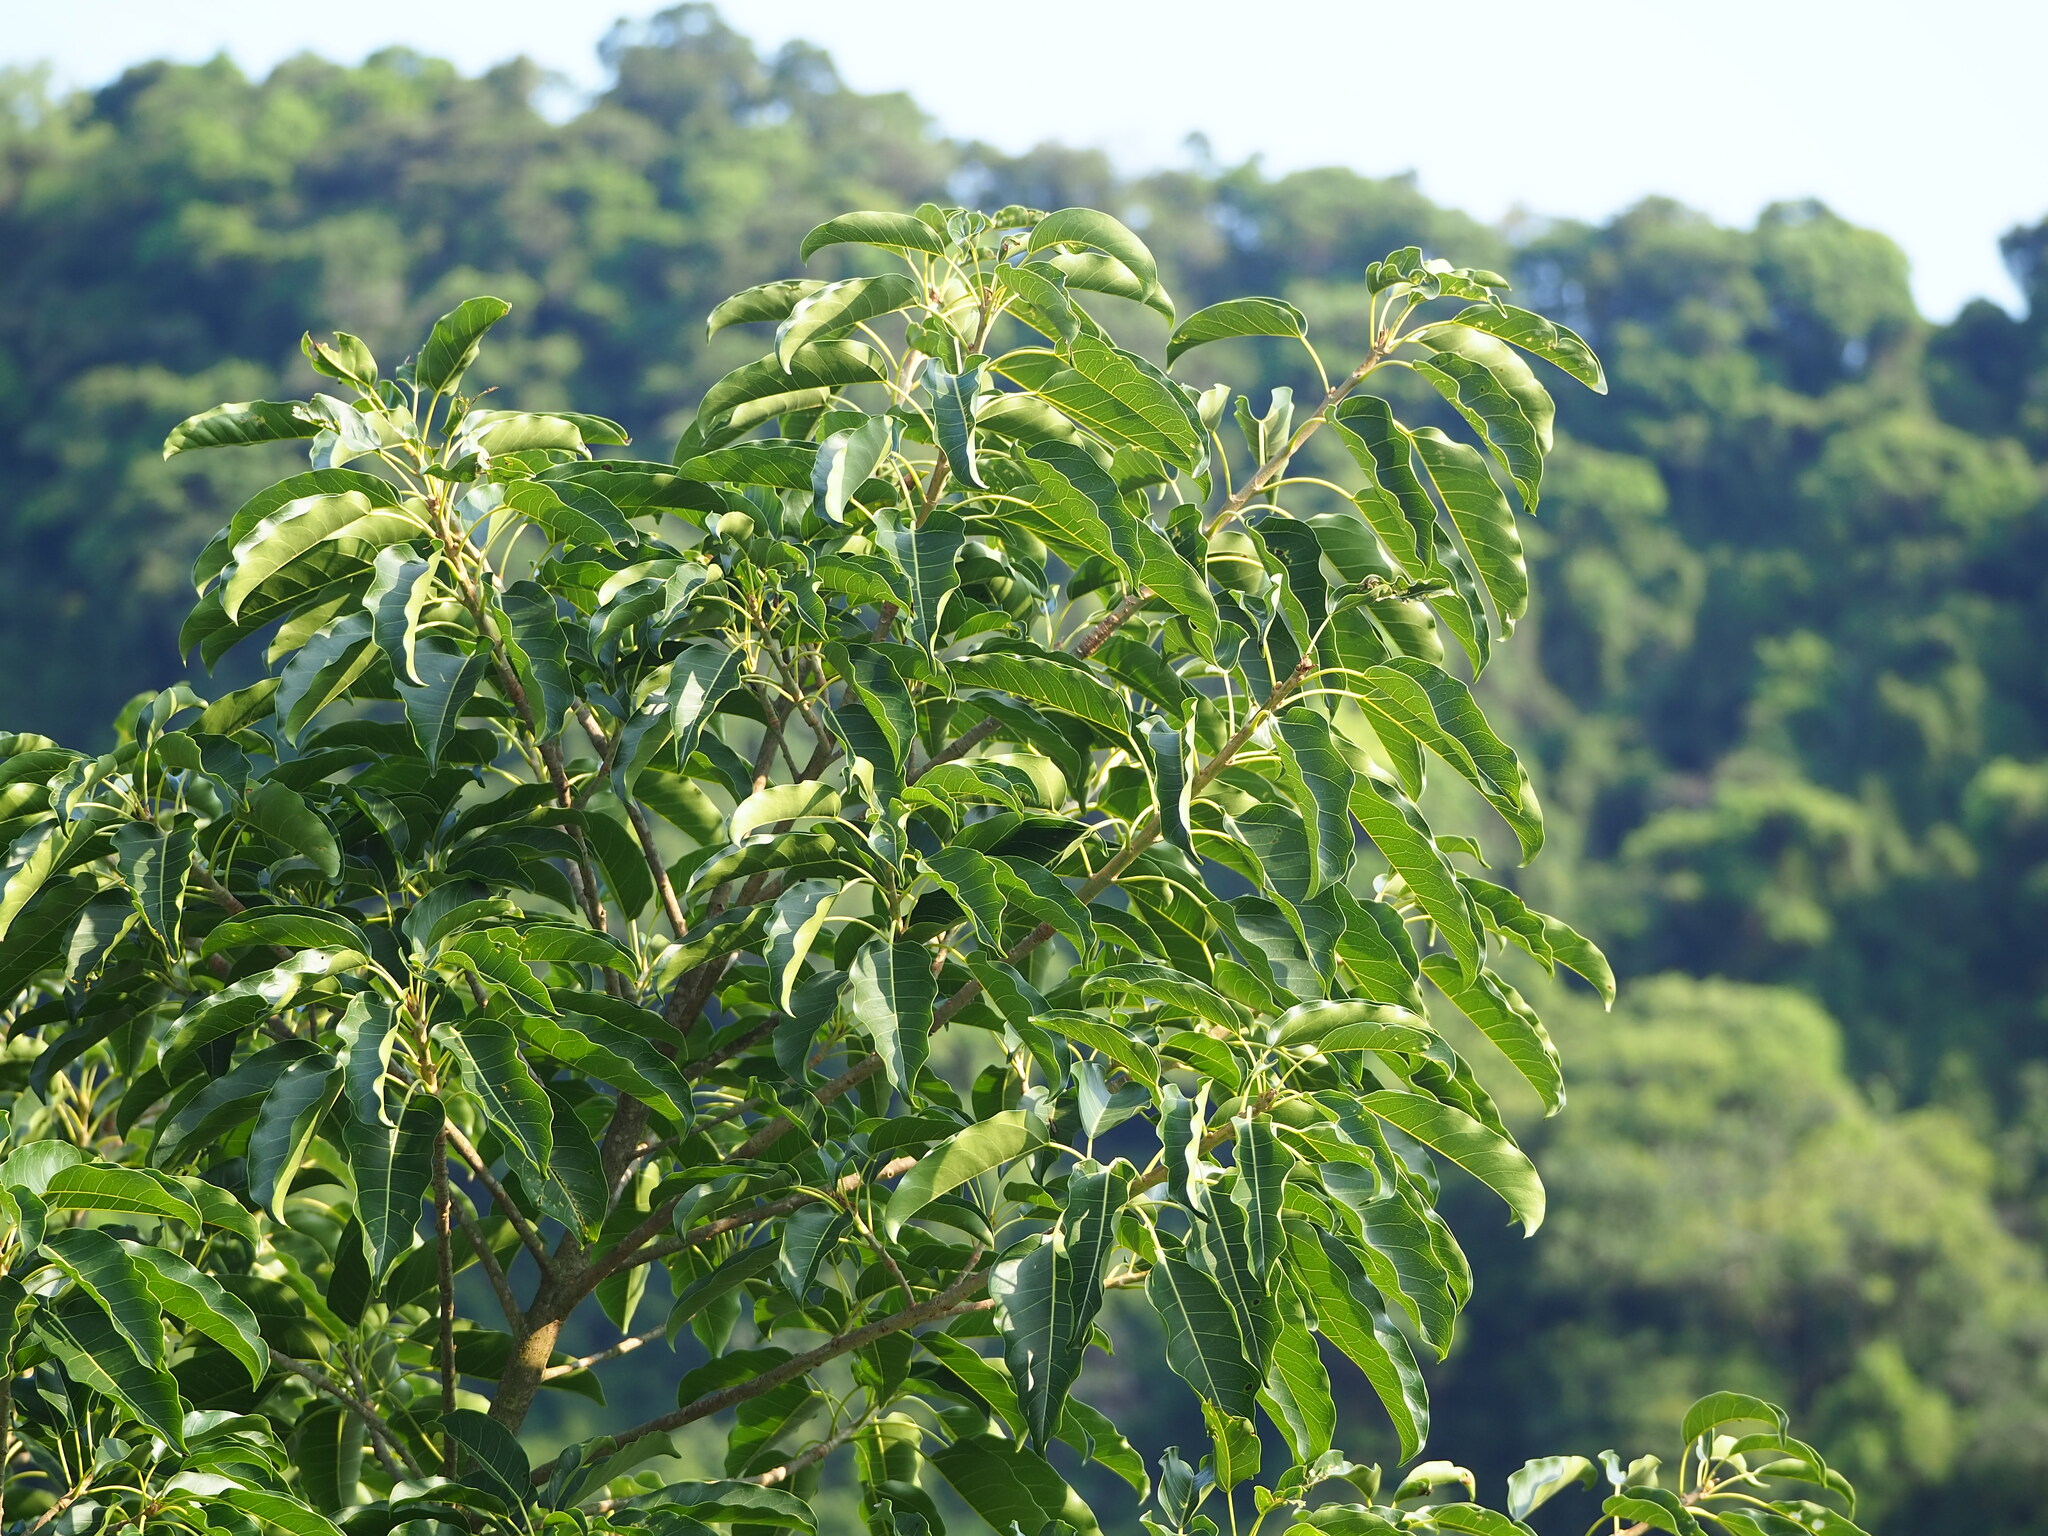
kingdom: Plantae
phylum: Tracheophyta
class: Magnoliopsida
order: Rosales
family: Moraceae
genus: Ficus
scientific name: Ficus subpisocarpa
